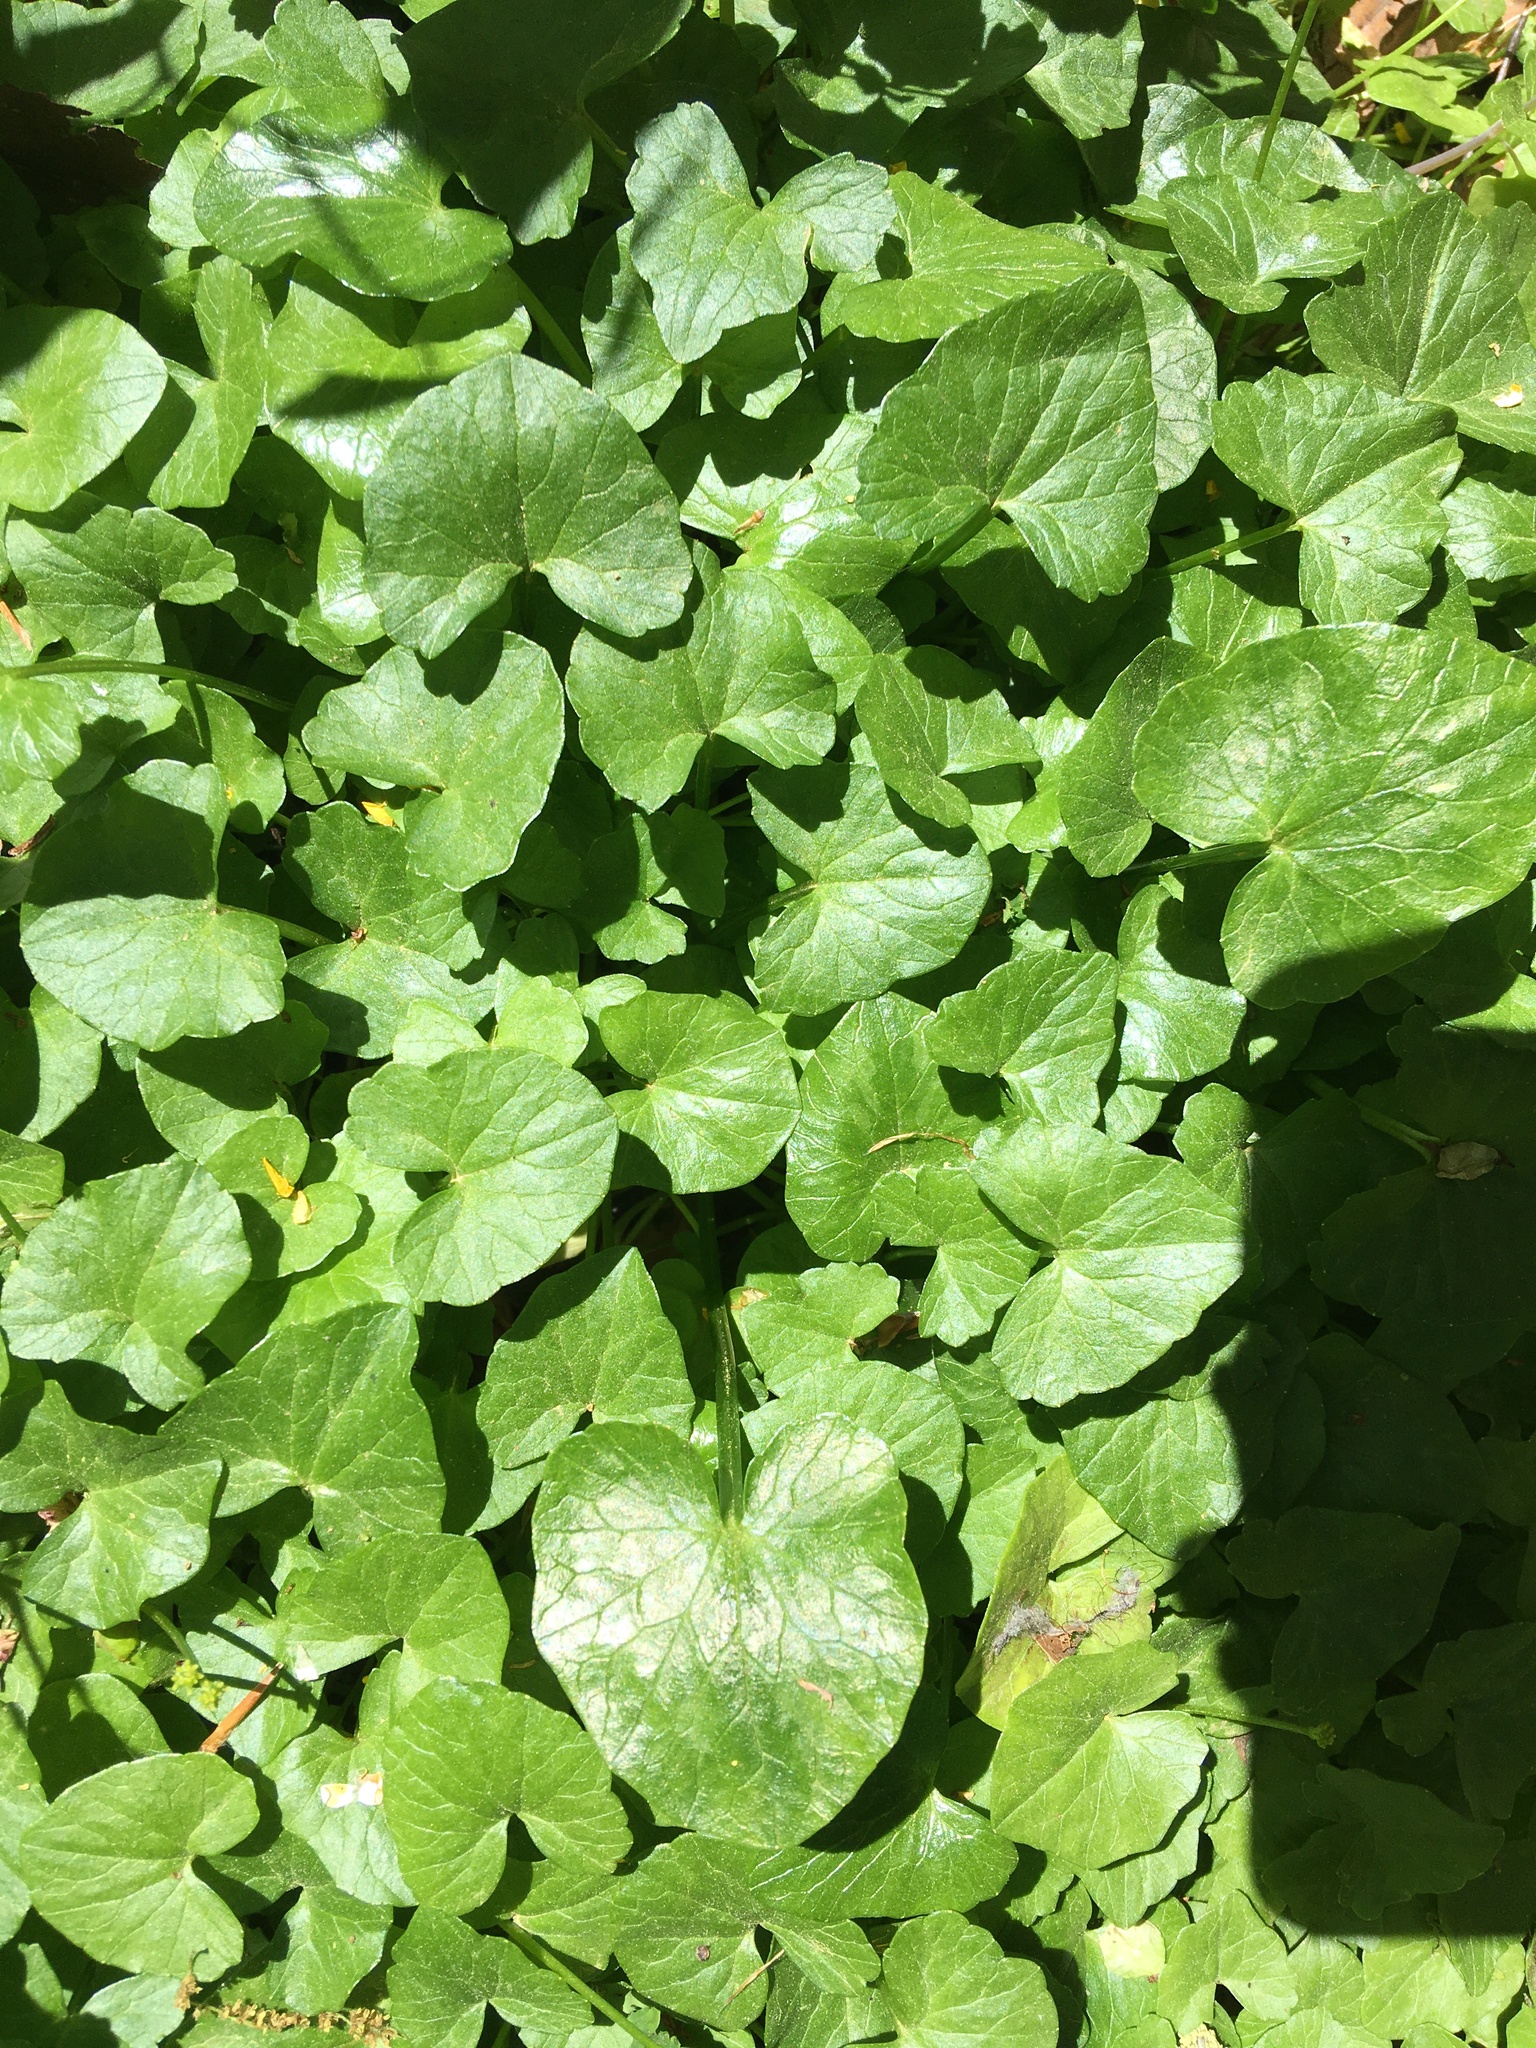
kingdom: Plantae
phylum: Tracheophyta
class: Magnoliopsida
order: Ranunculales
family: Ranunculaceae
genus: Ficaria
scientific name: Ficaria verna
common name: Lesser celandine
